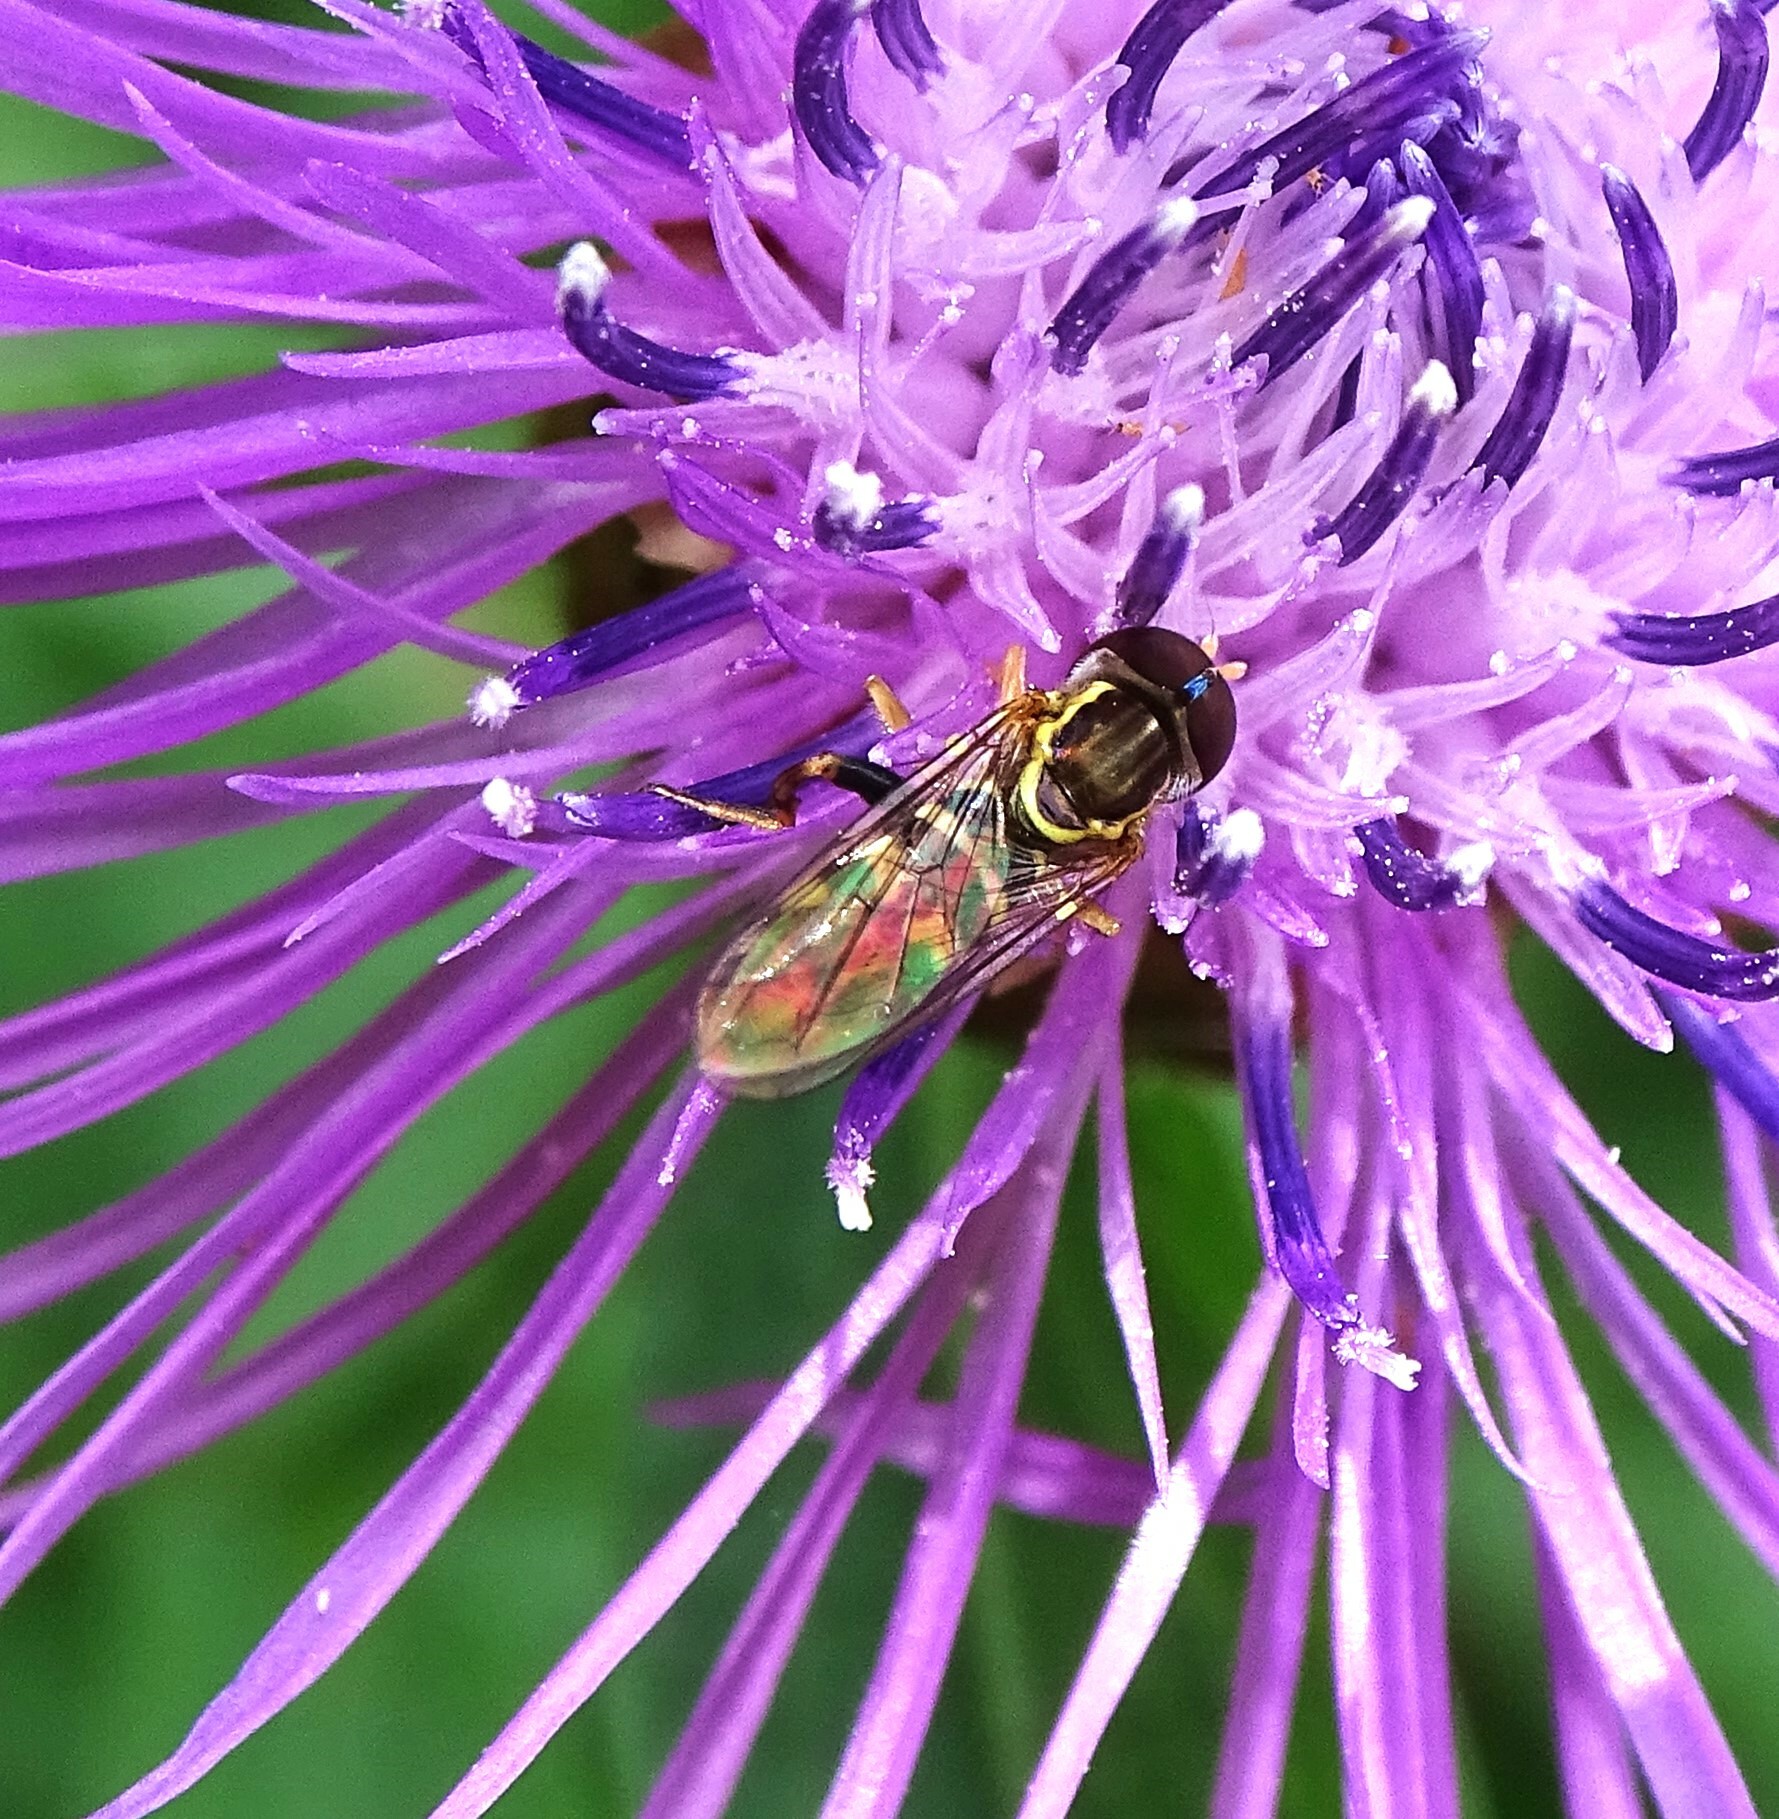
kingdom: Animalia
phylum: Arthropoda
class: Insecta
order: Diptera
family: Syrphidae
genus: Toxomerus
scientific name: Toxomerus geminatus
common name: Eastern calligrapher
